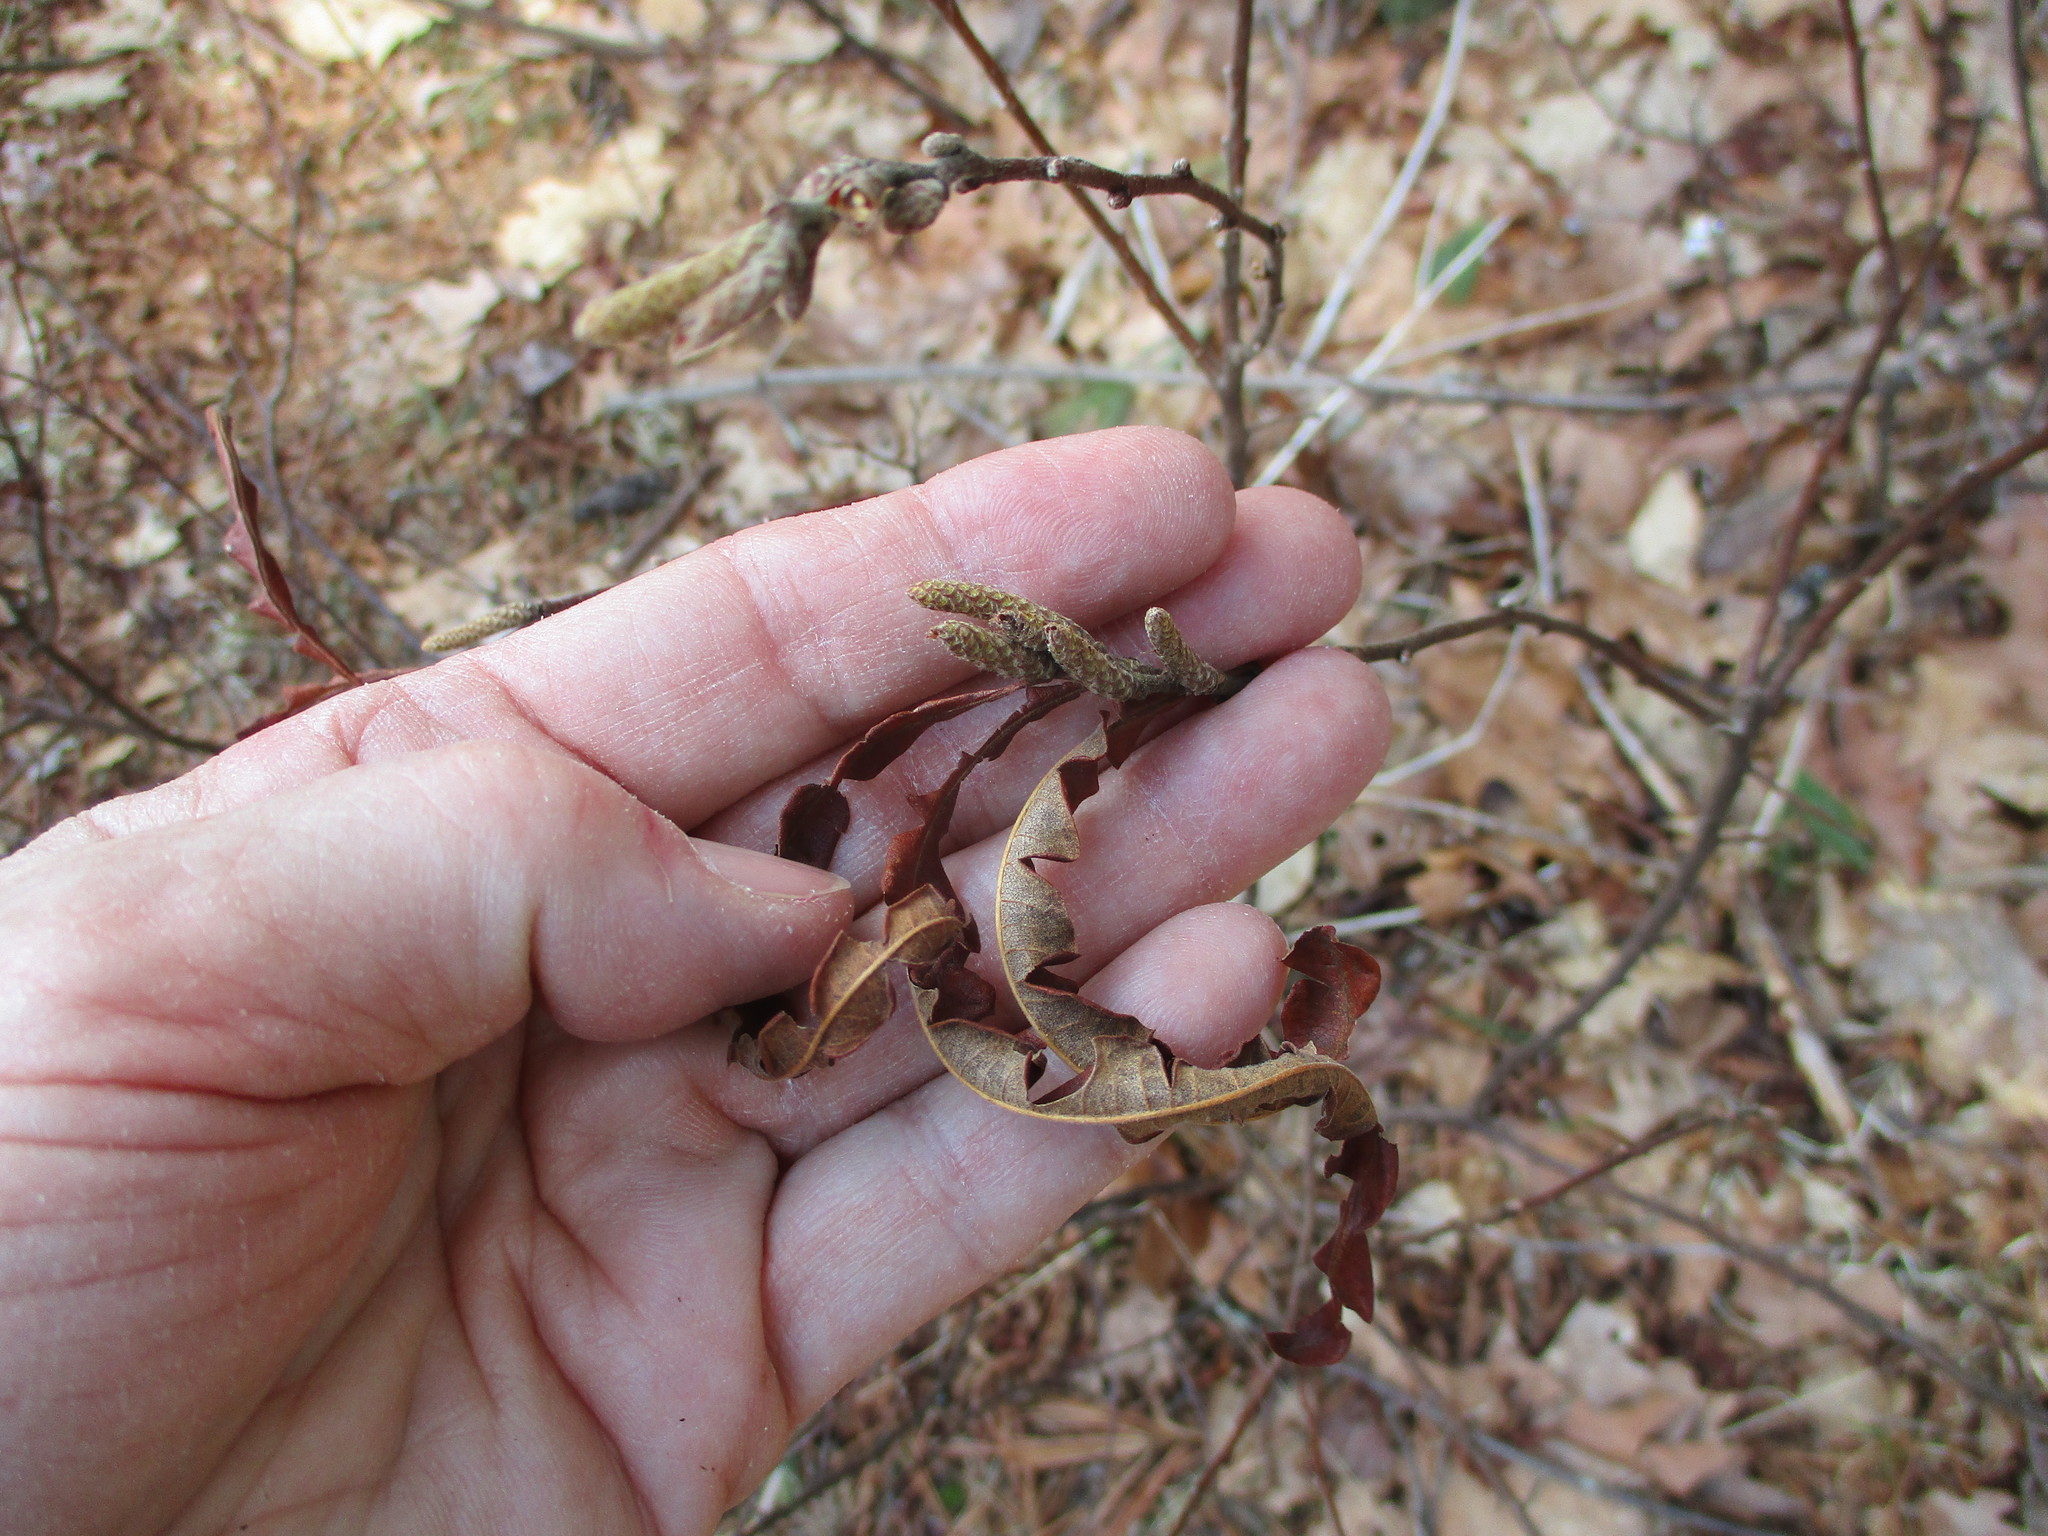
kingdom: Plantae
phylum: Tracheophyta
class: Magnoliopsida
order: Fagales
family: Myricaceae
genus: Comptonia
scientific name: Comptonia peregrina
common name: Sweet-fern
